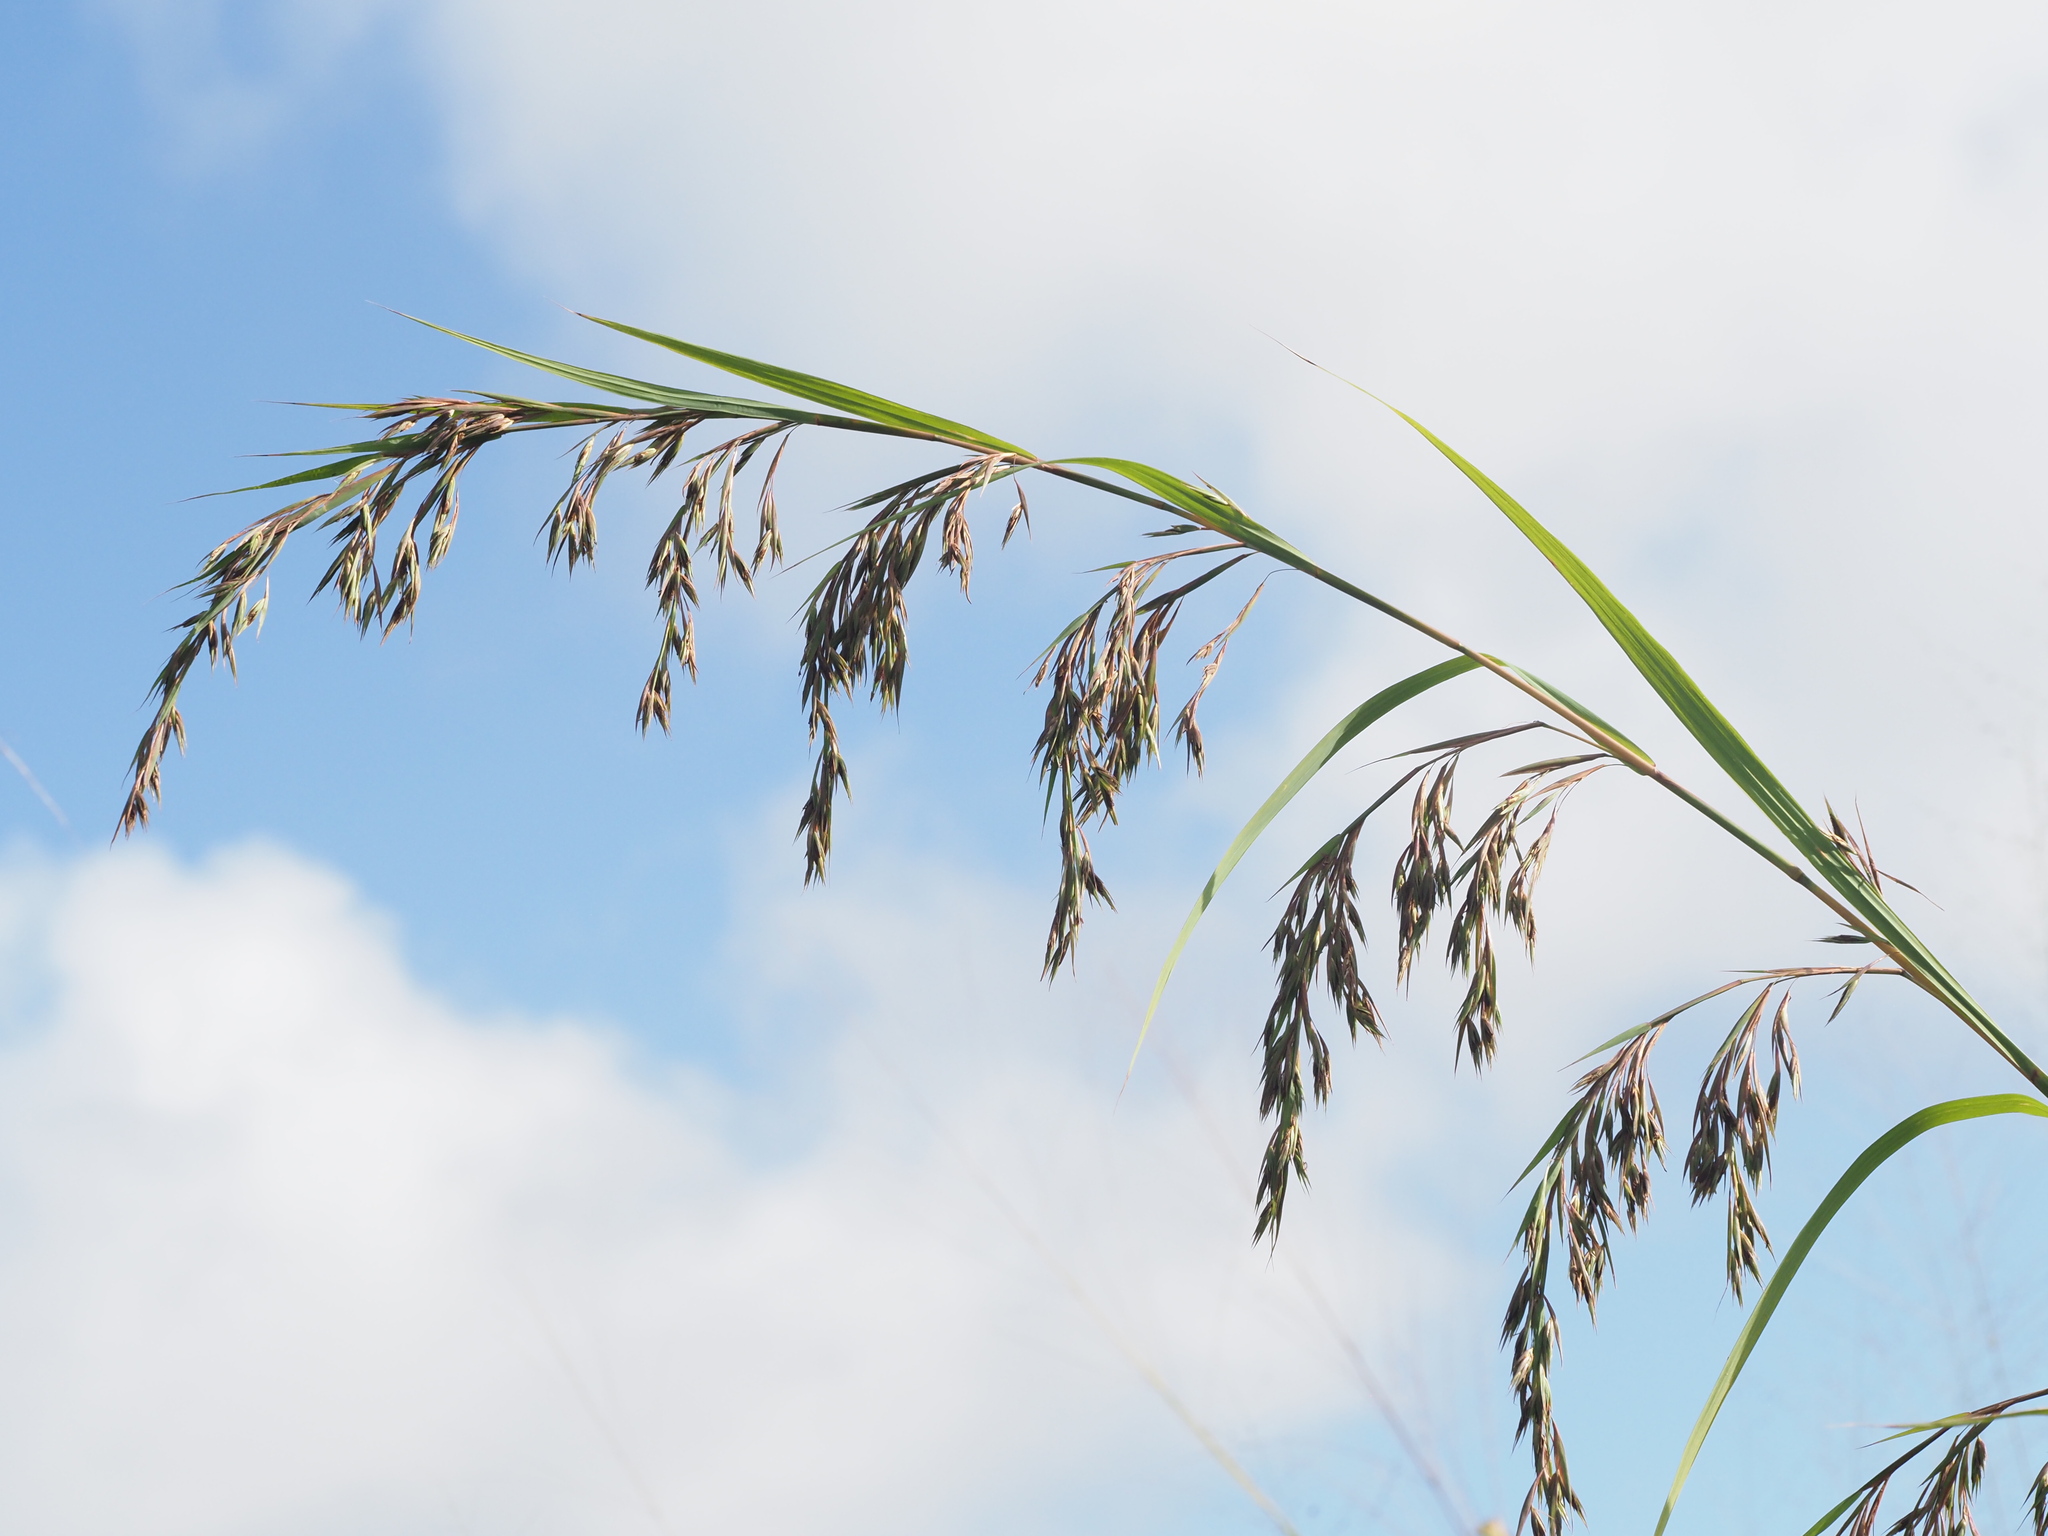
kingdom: Plantae
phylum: Tracheophyta
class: Liliopsida
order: Poales
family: Poaceae
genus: Themeda
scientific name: Themeda villosa
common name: Silky kangaroo grass
